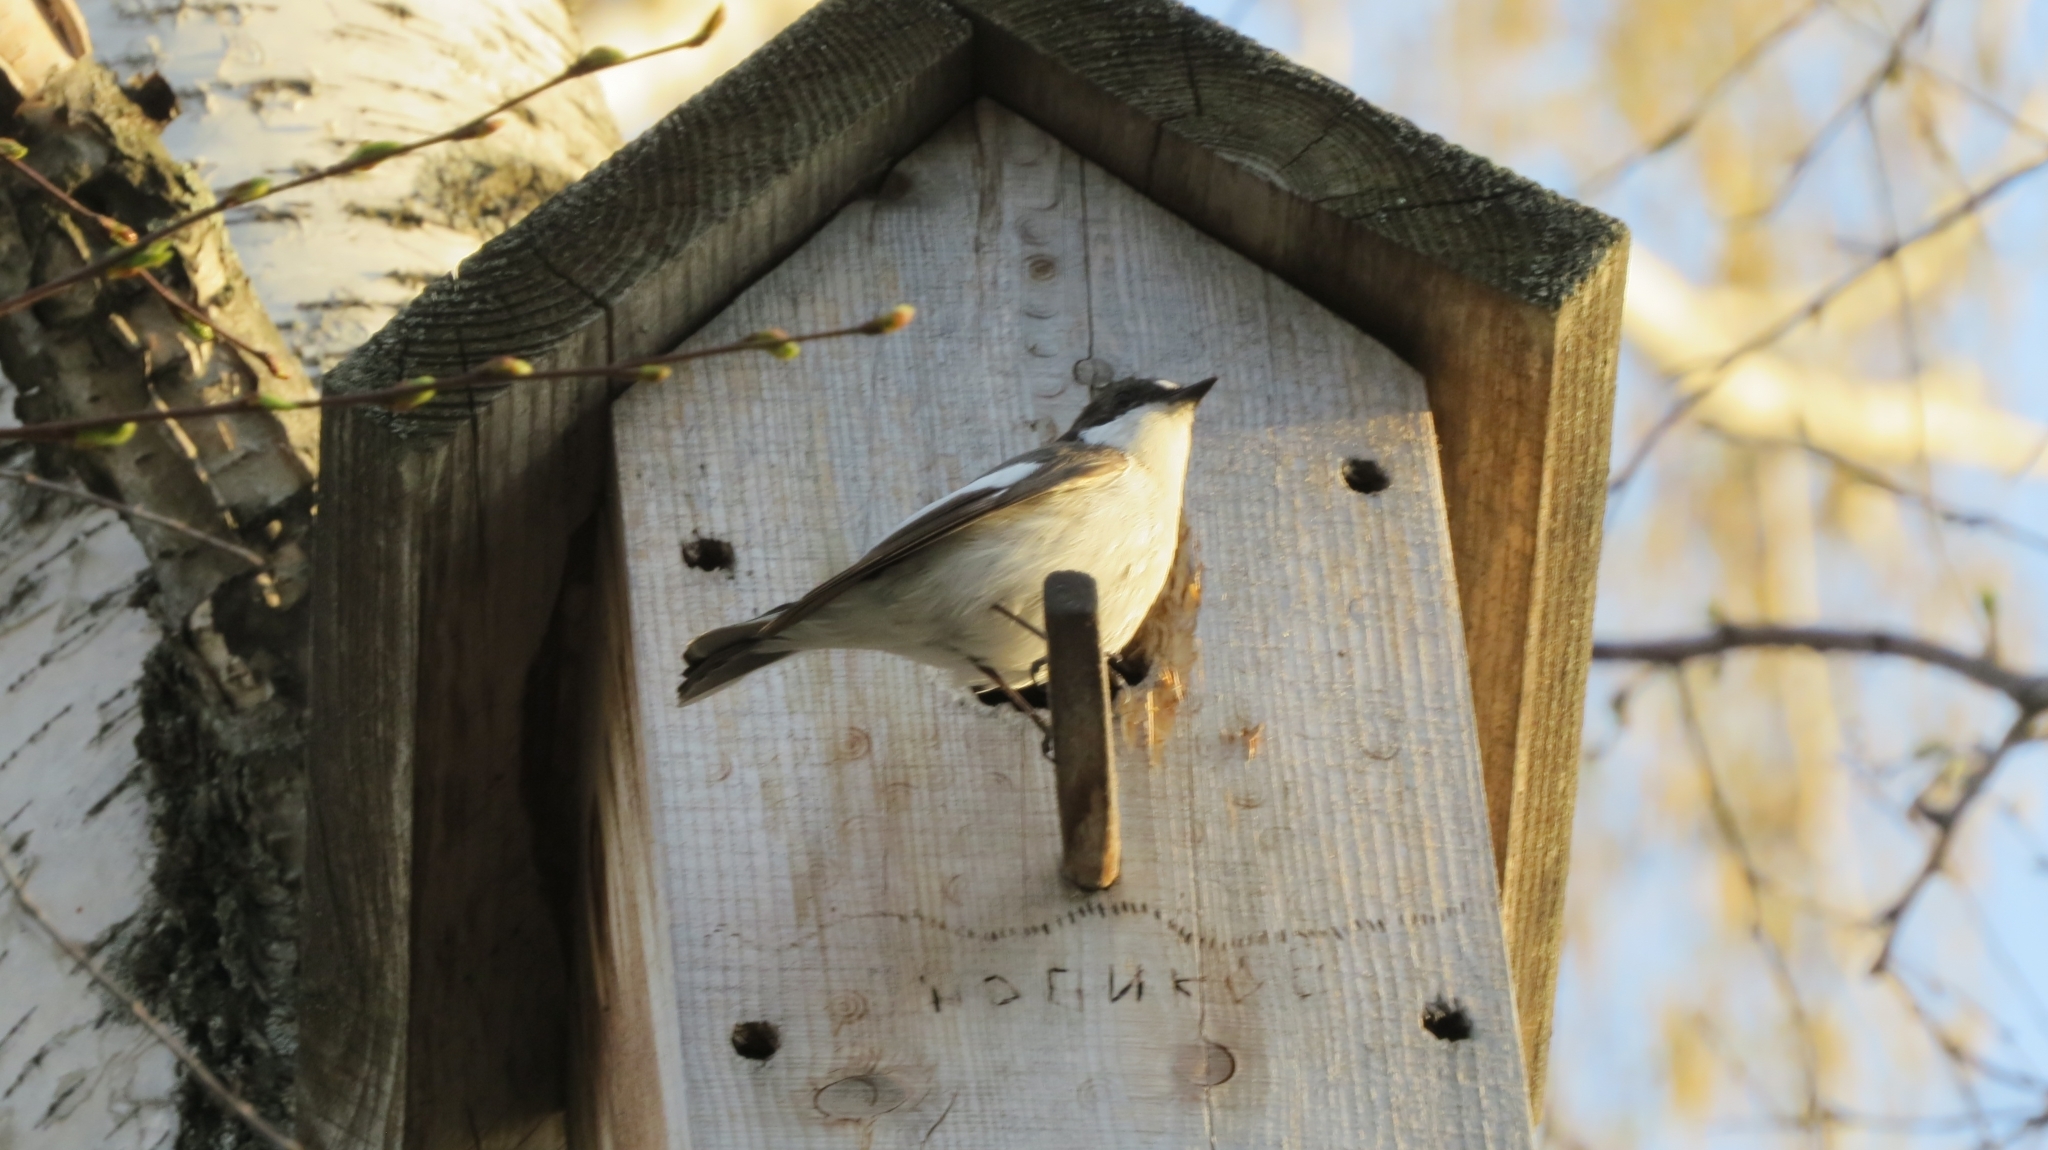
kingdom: Animalia
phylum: Chordata
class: Aves
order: Passeriformes
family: Muscicapidae
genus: Ficedula
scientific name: Ficedula hypoleuca
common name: European pied flycatcher
